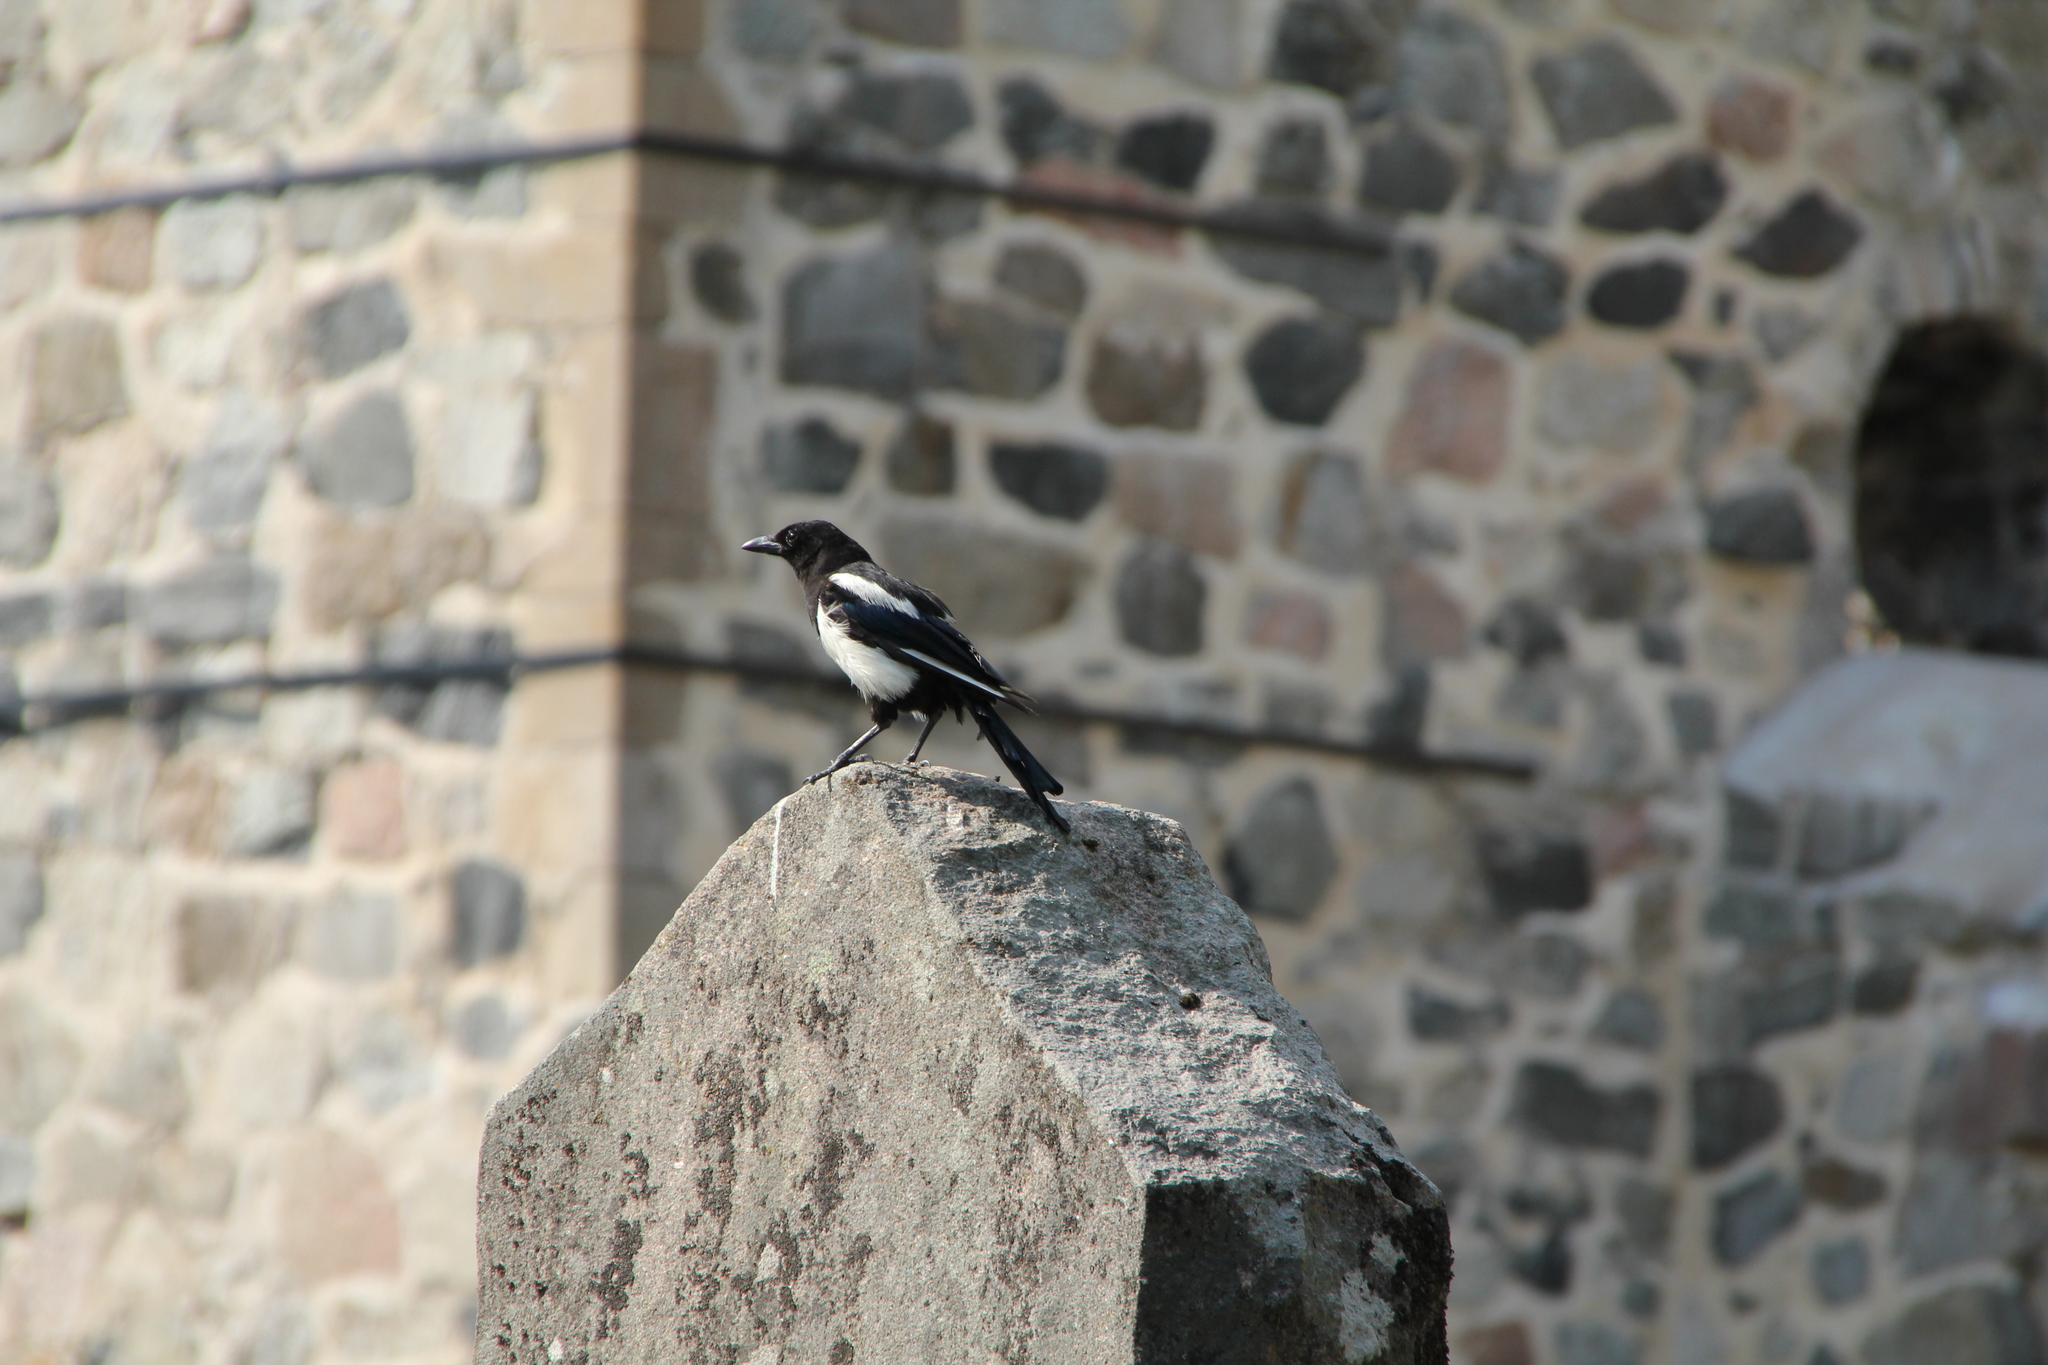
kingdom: Animalia
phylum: Chordata
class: Aves
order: Passeriformes
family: Corvidae
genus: Pica
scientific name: Pica pica
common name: Eurasian magpie
